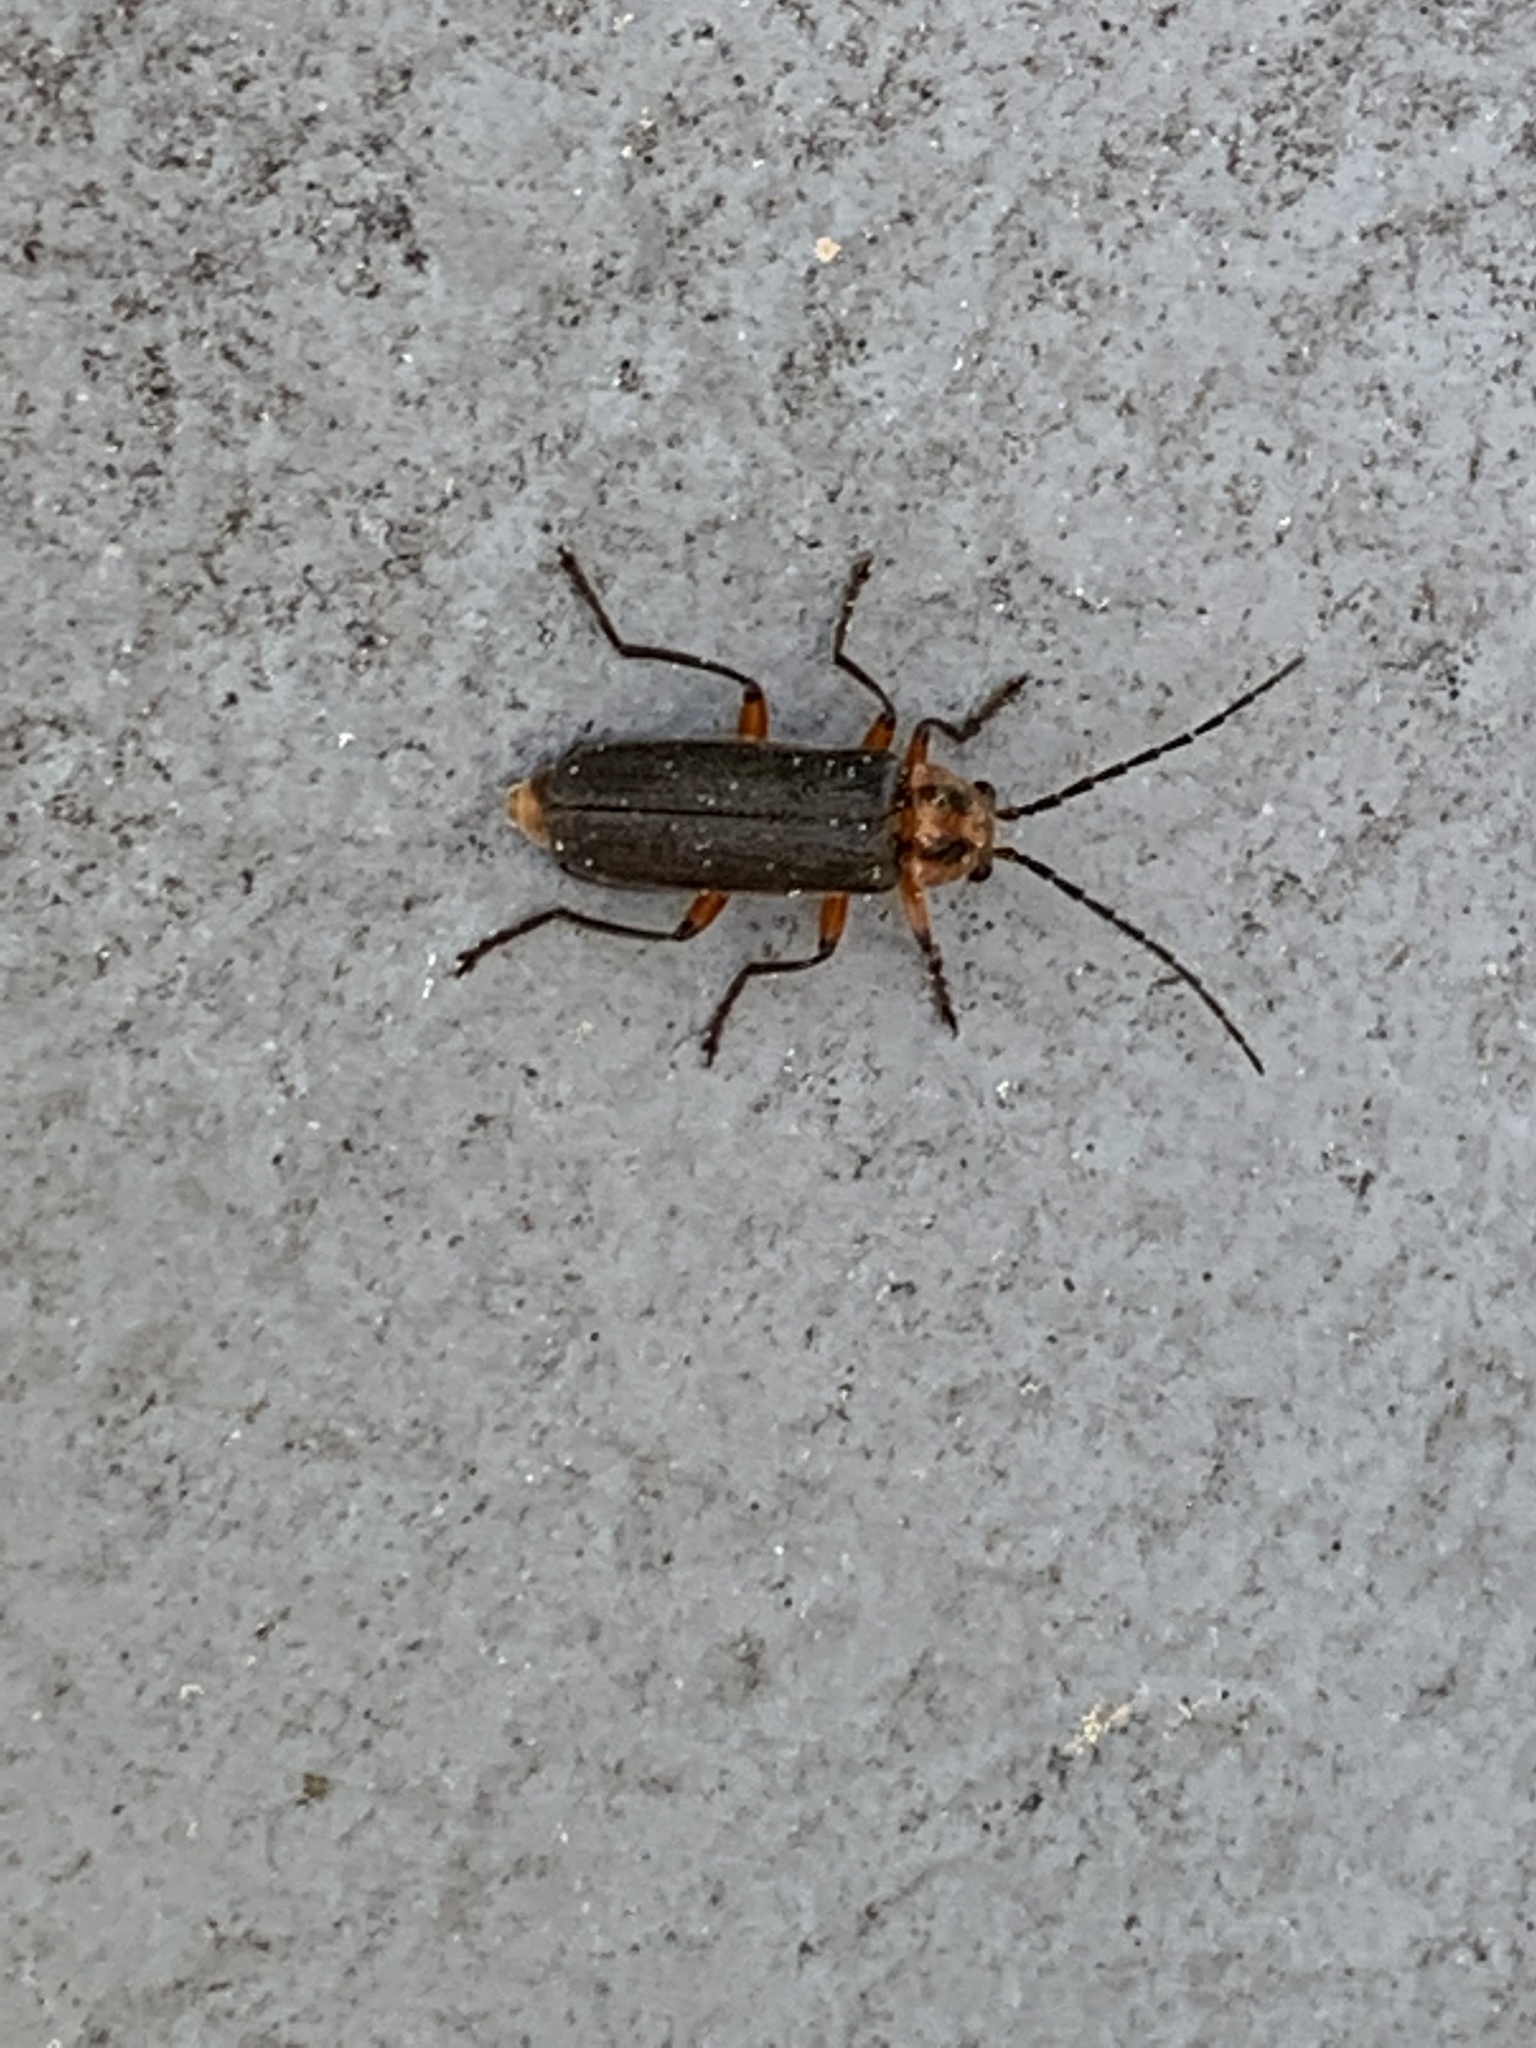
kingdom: Animalia
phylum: Arthropoda
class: Insecta
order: Coleoptera
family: Cantharidae
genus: Atalantycha
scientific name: Atalantycha bilineata
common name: Two-lined leatherwing
